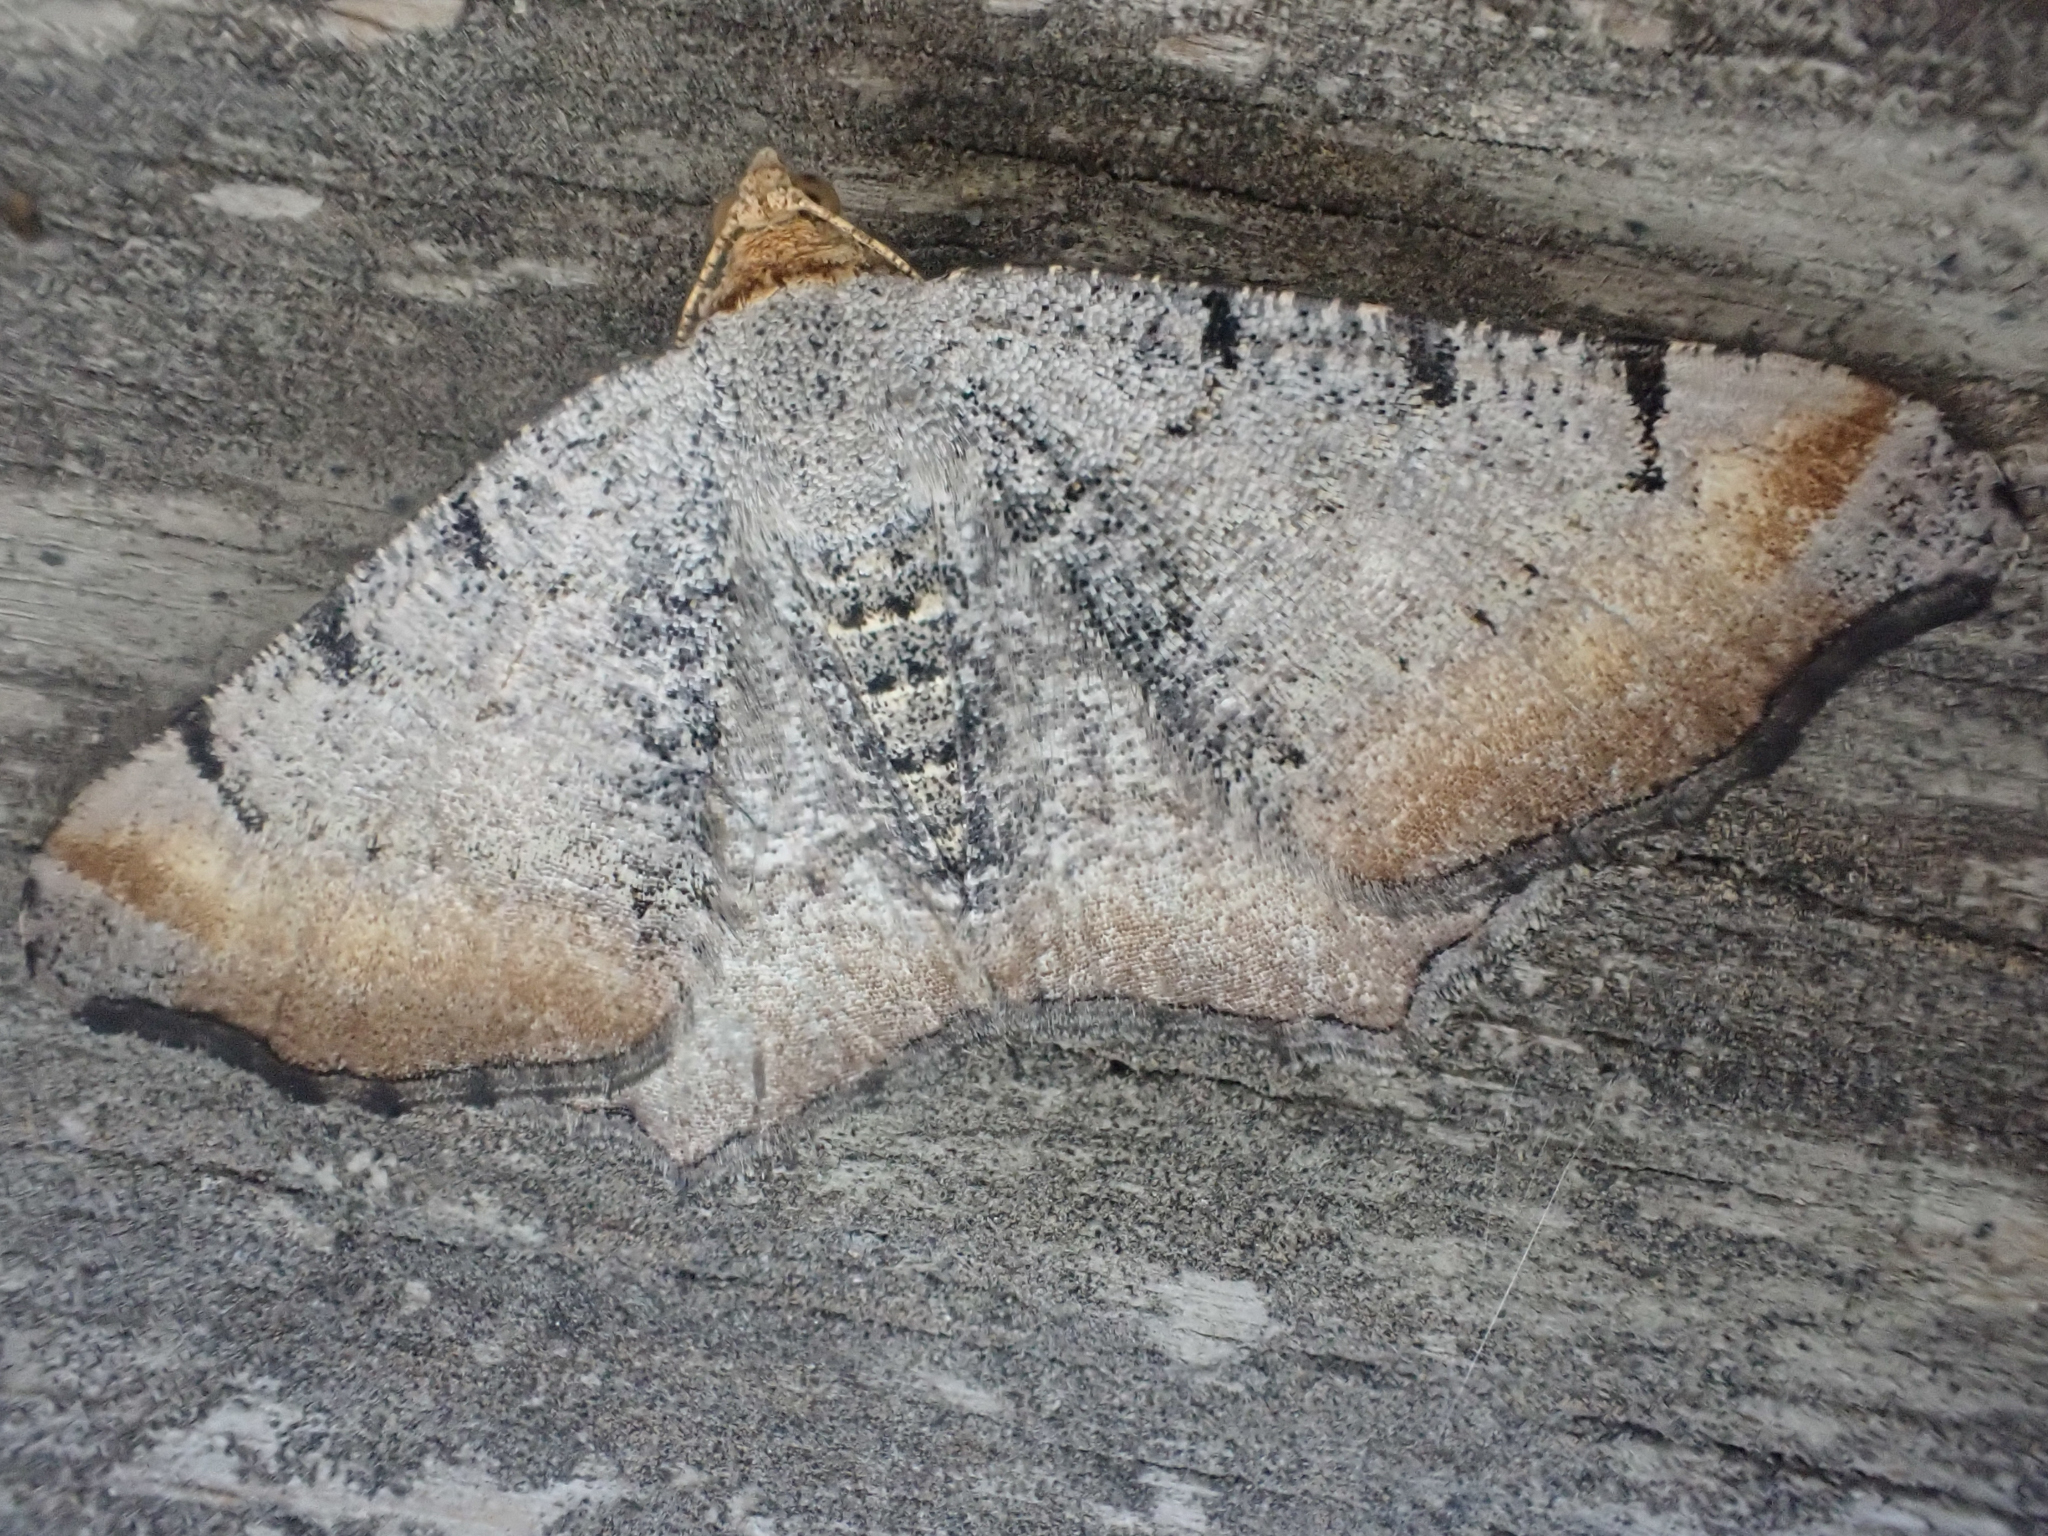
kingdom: Animalia
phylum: Arthropoda
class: Insecta
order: Lepidoptera
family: Geometridae
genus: Macaria
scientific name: Macaria adonis
